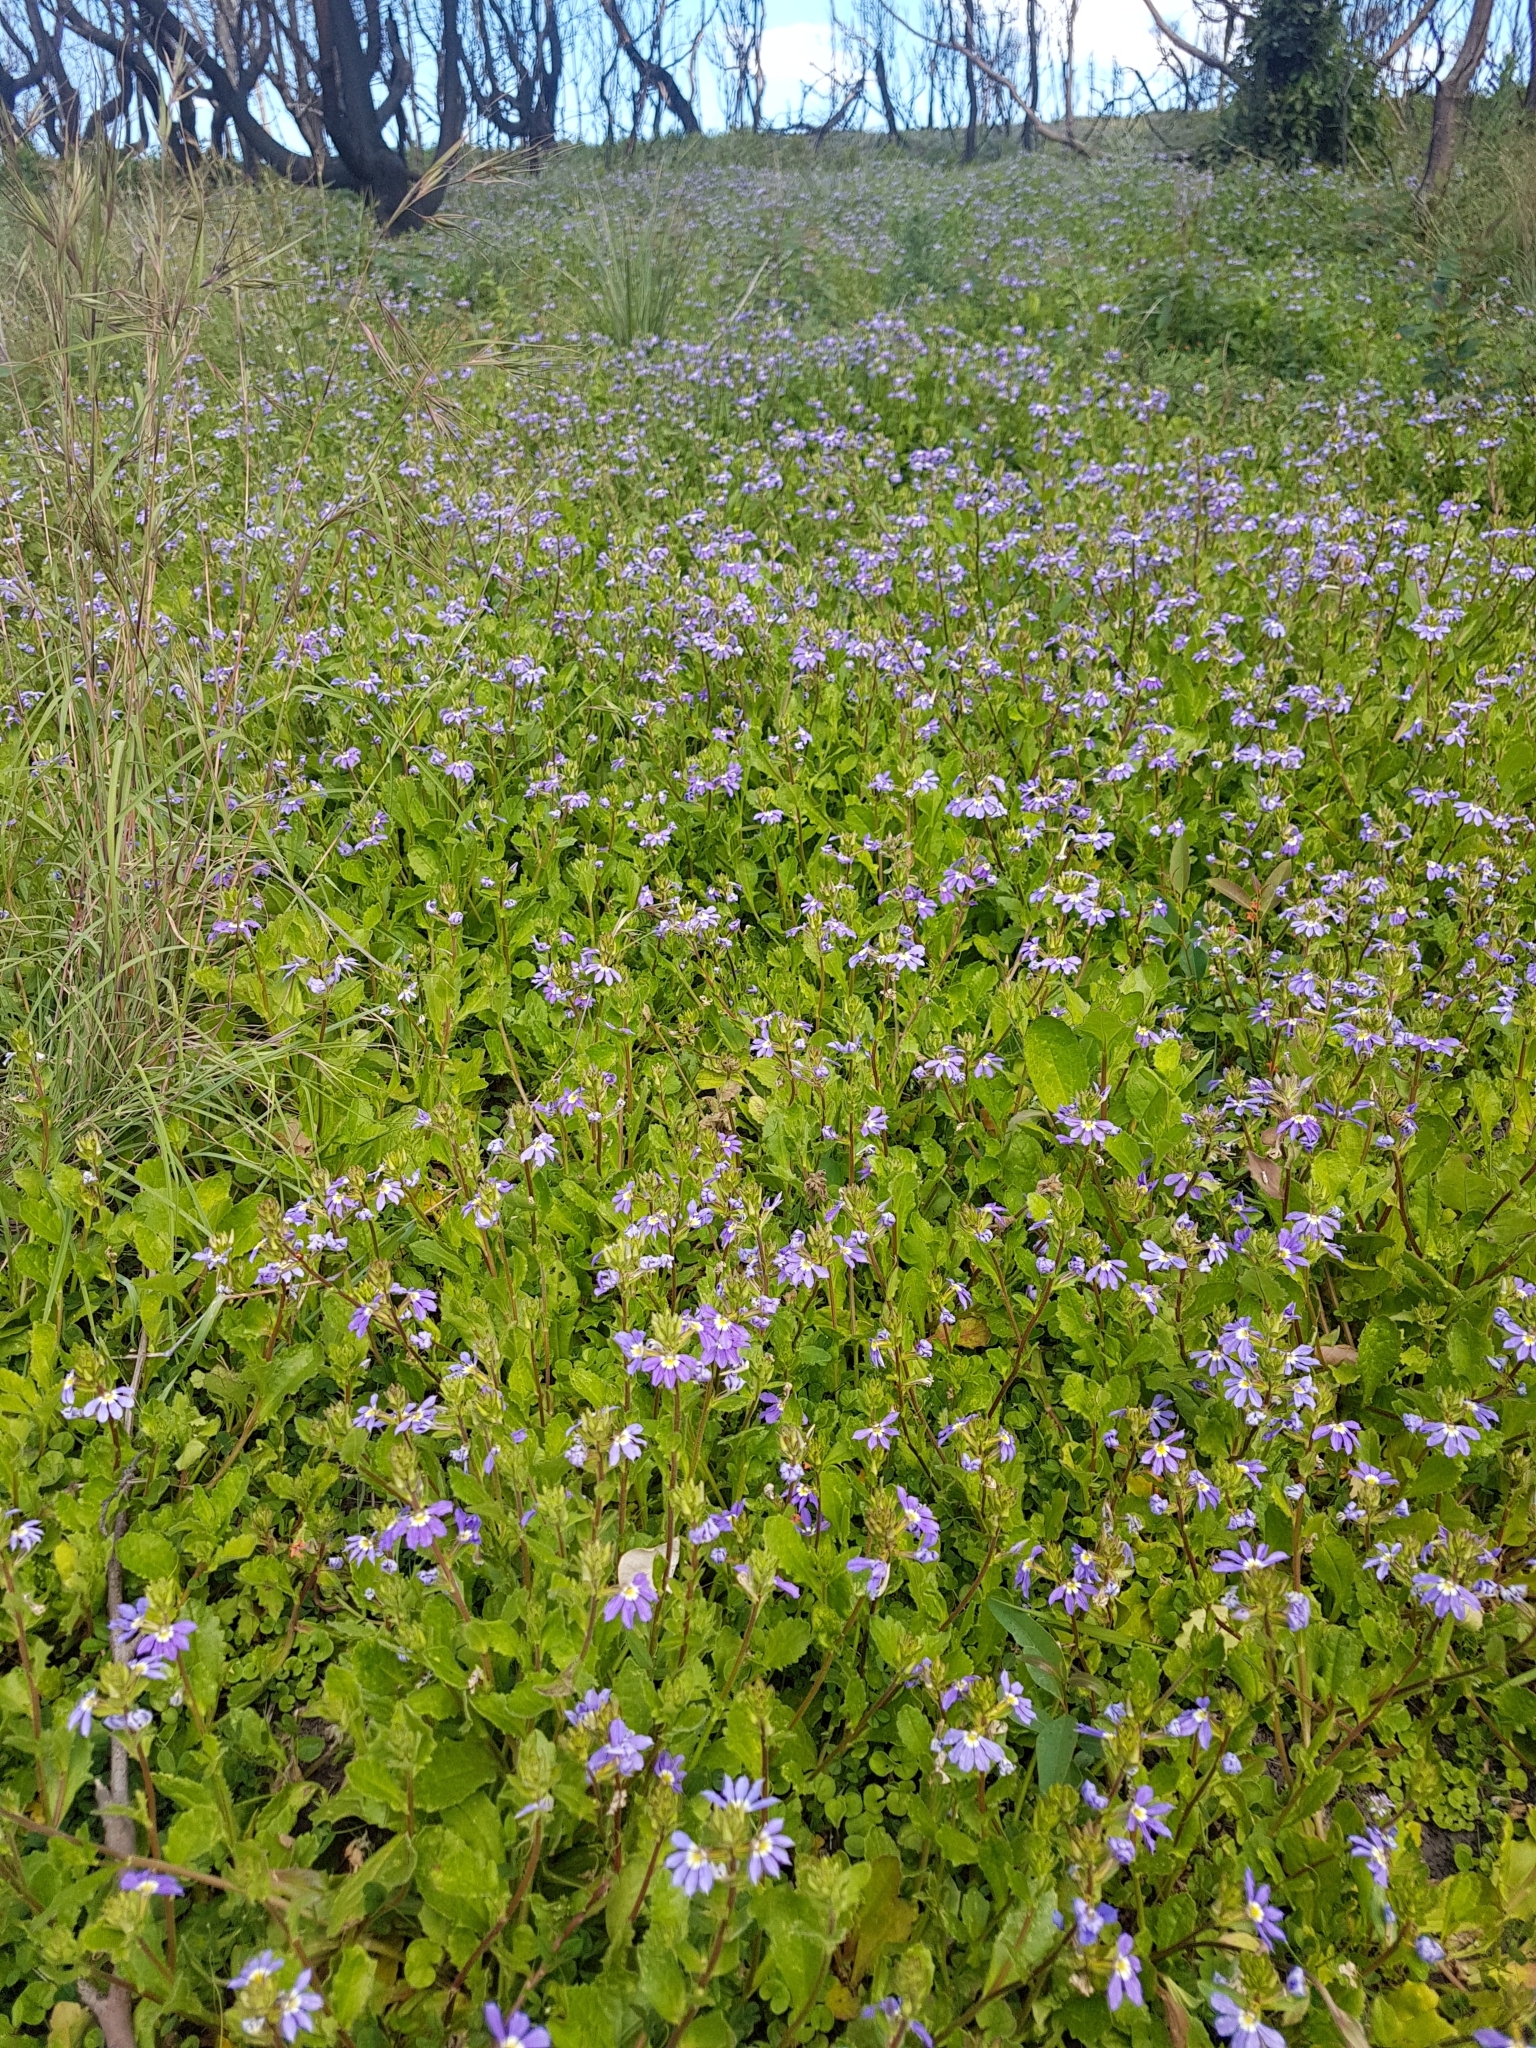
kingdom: Plantae
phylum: Tracheophyta
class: Magnoliopsida
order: Asterales
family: Goodeniaceae
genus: Scaevola
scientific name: Scaevola aemula
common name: Common fanflower
